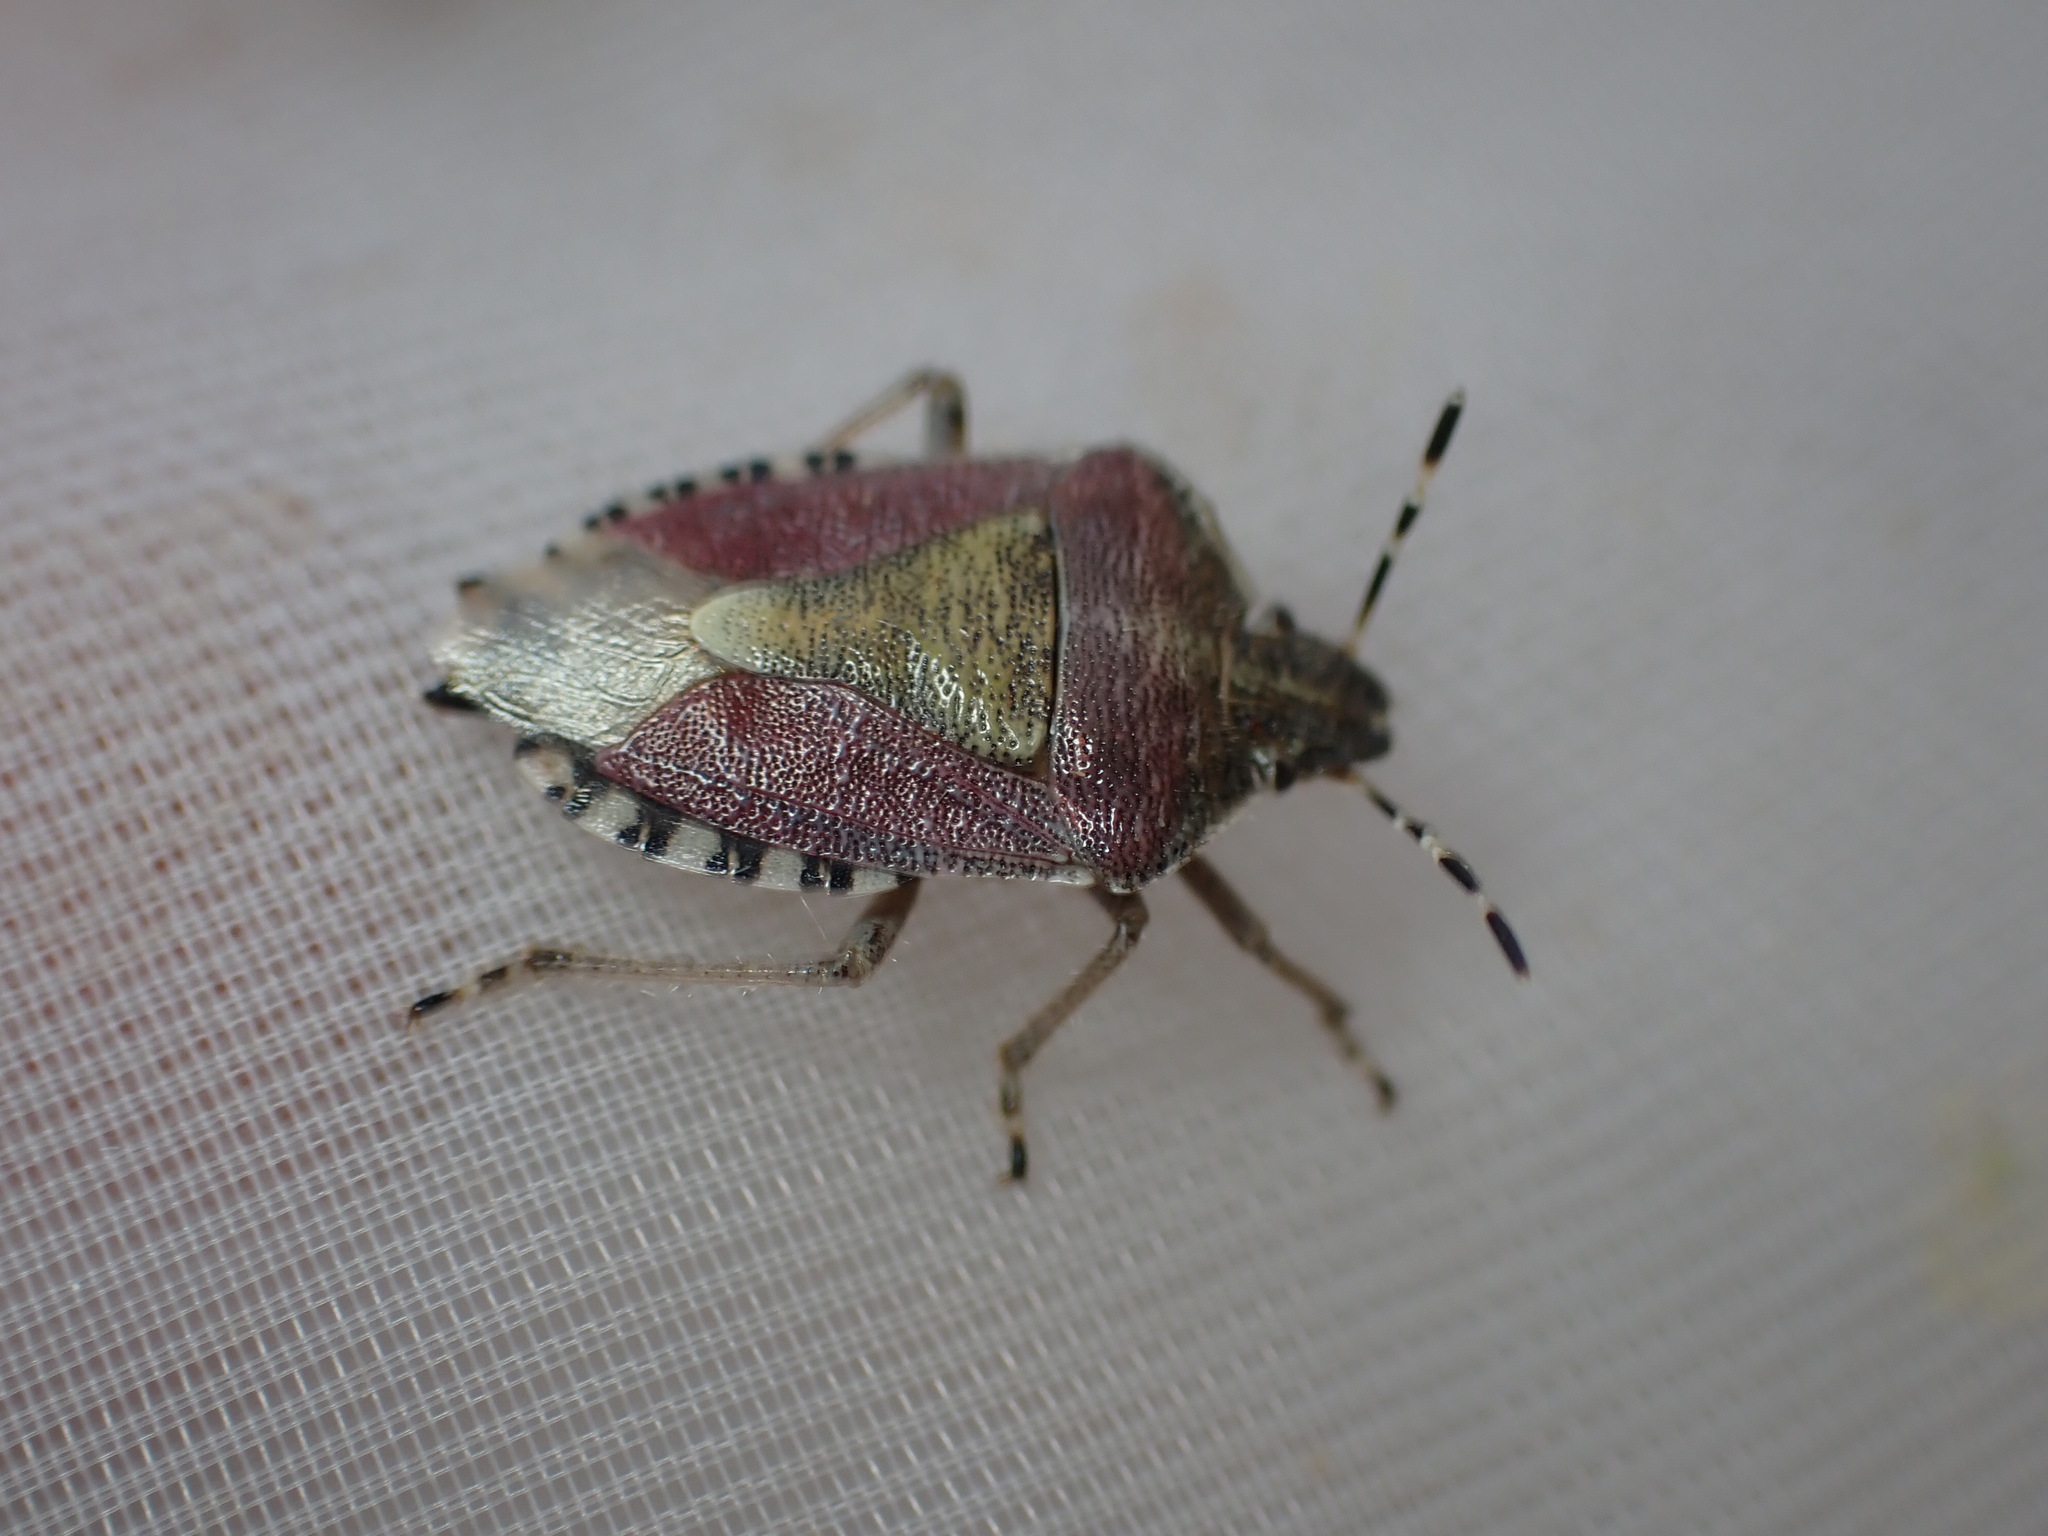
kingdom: Animalia
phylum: Arthropoda
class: Insecta
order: Hemiptera
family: Pentatomidae
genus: Dolycoris
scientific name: Dolycoris baccarum
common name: Sloe bug
